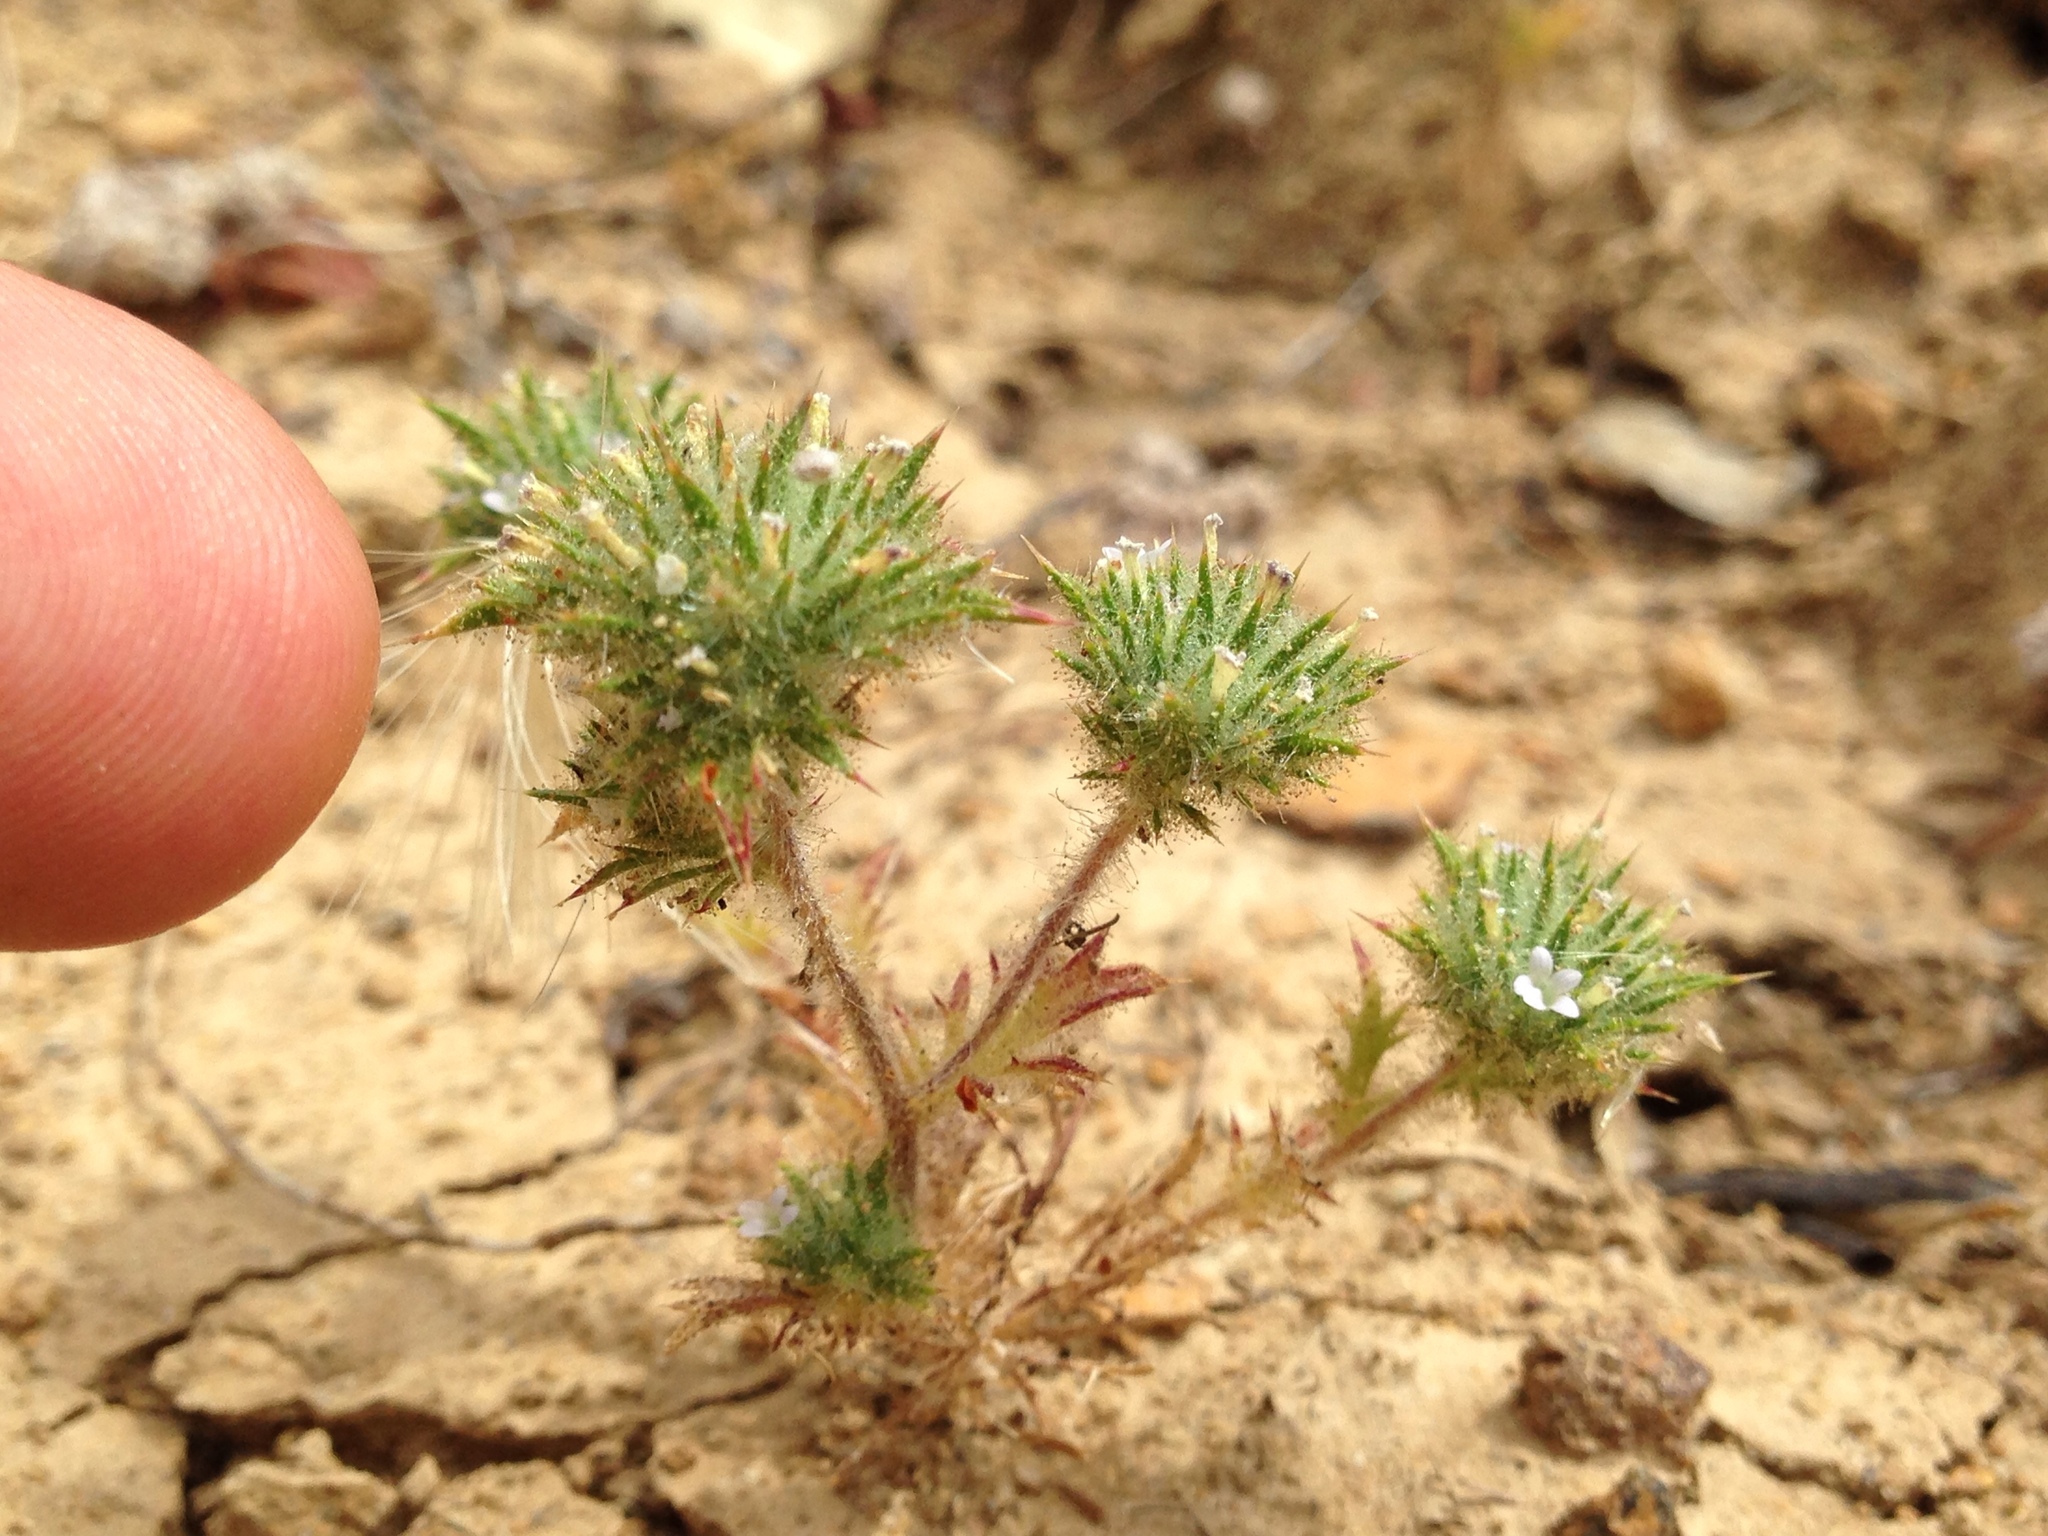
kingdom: Plantae
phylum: Tracheophyta
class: Magnoliopsida
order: Ericales
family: Polemoniaceae
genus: Navarretia
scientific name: Navarretia mellita
